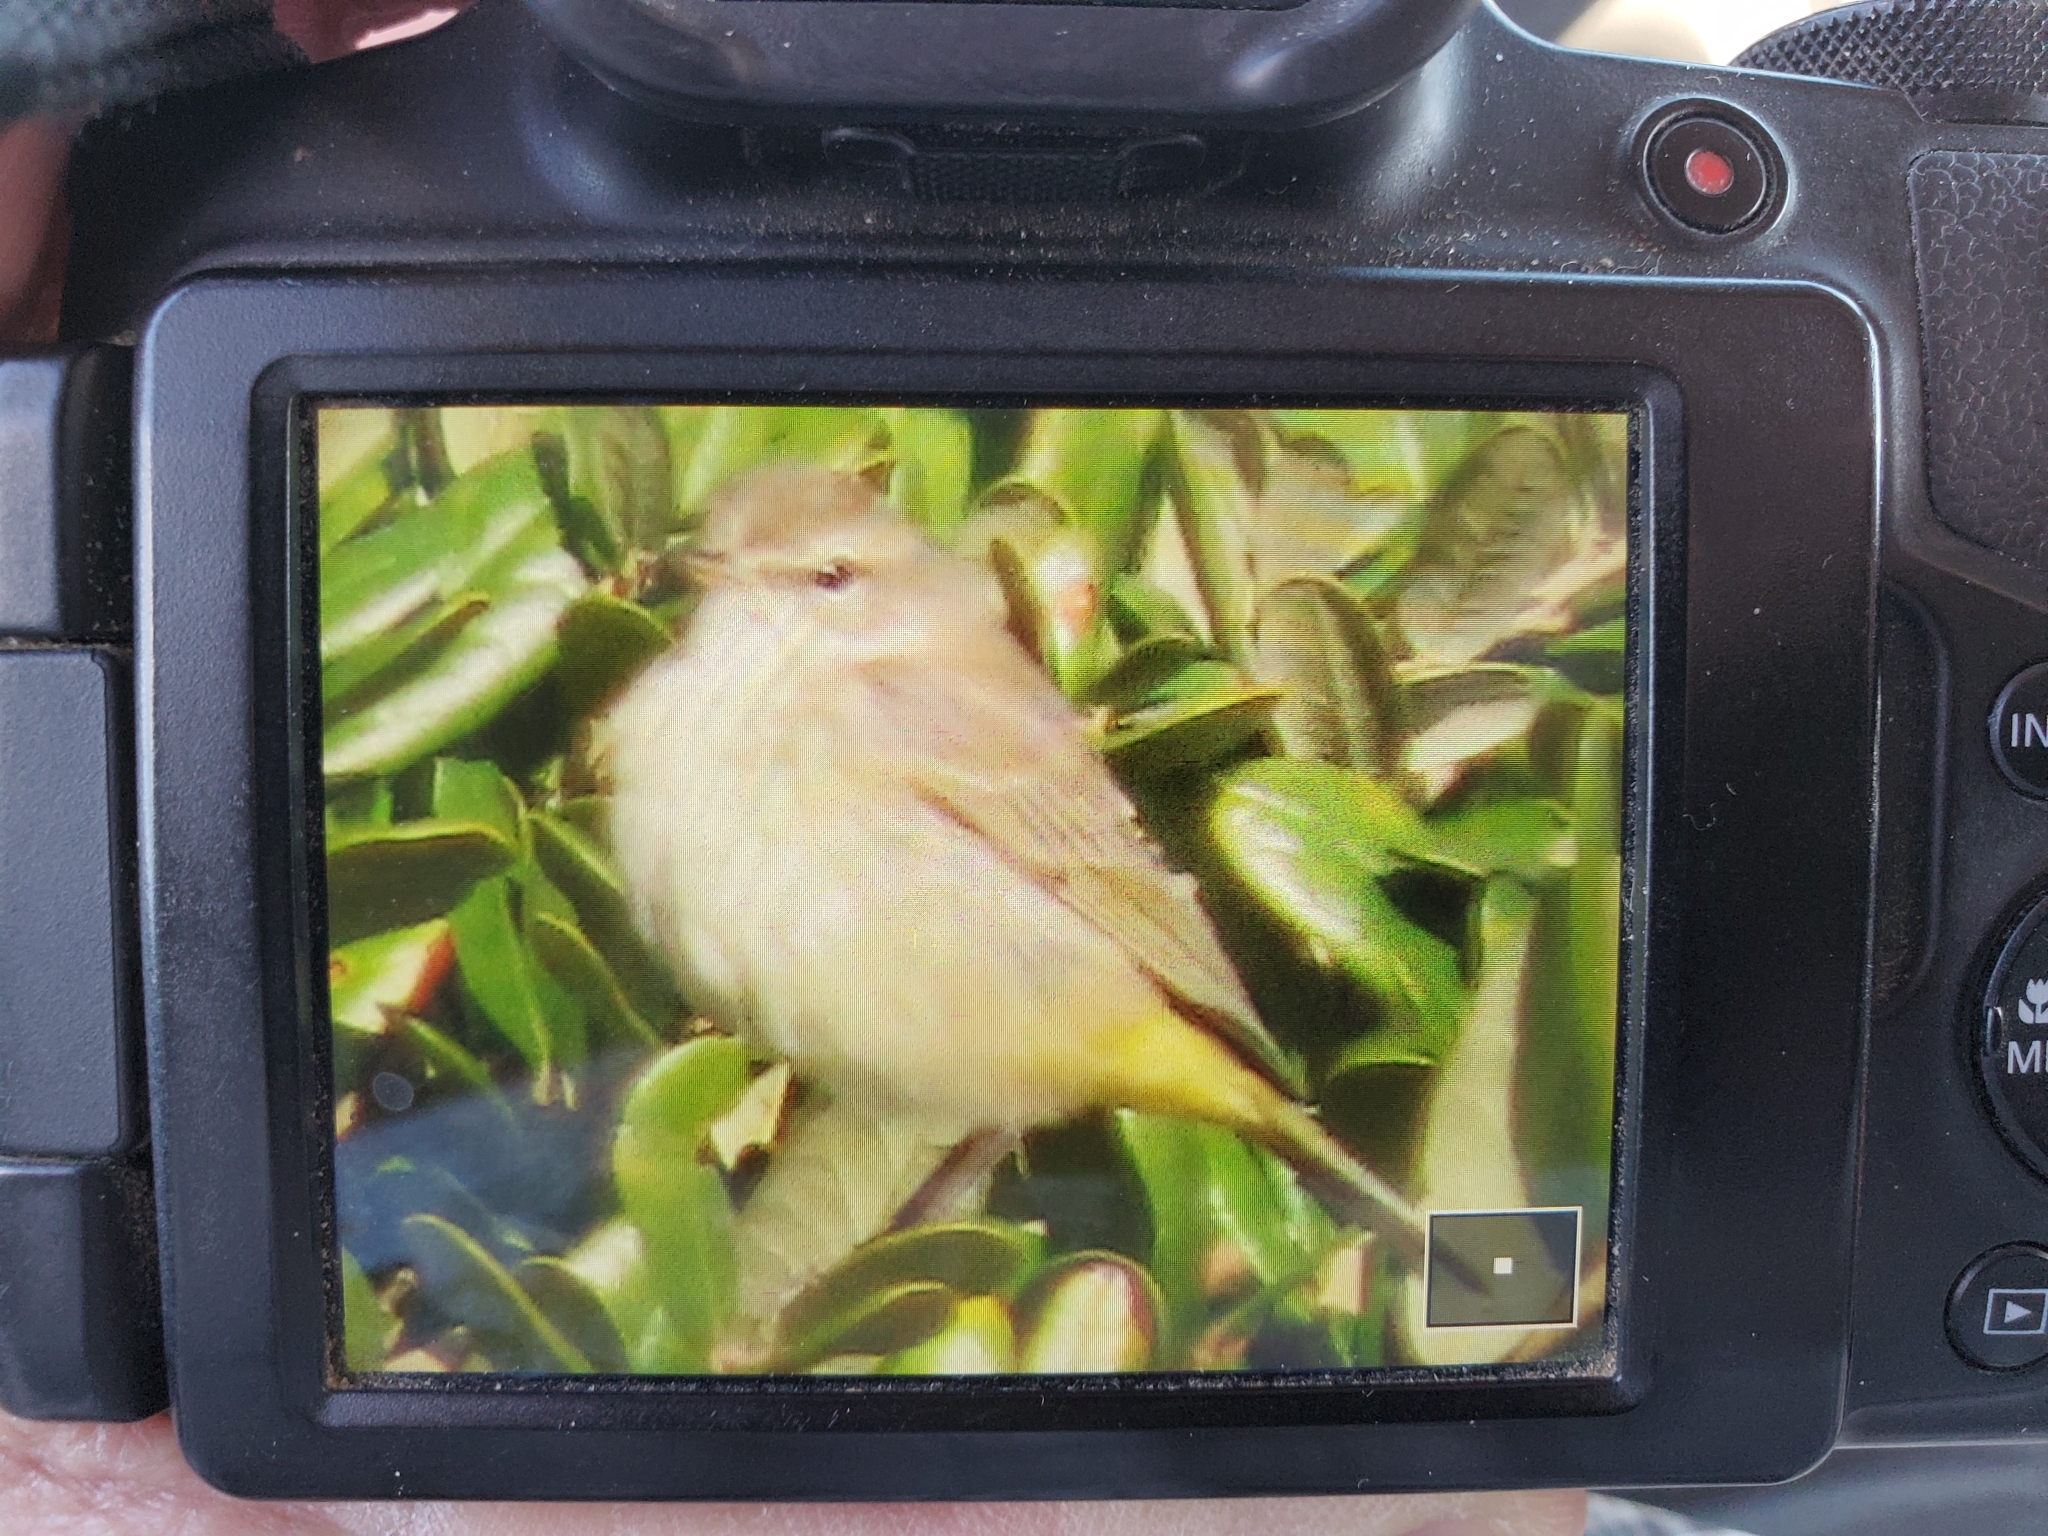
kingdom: Animalia
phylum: Chordata
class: Aves
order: Passeriformes
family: Parulidae
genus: Setophaga
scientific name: Setophaga palmarum
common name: Palm warbler
